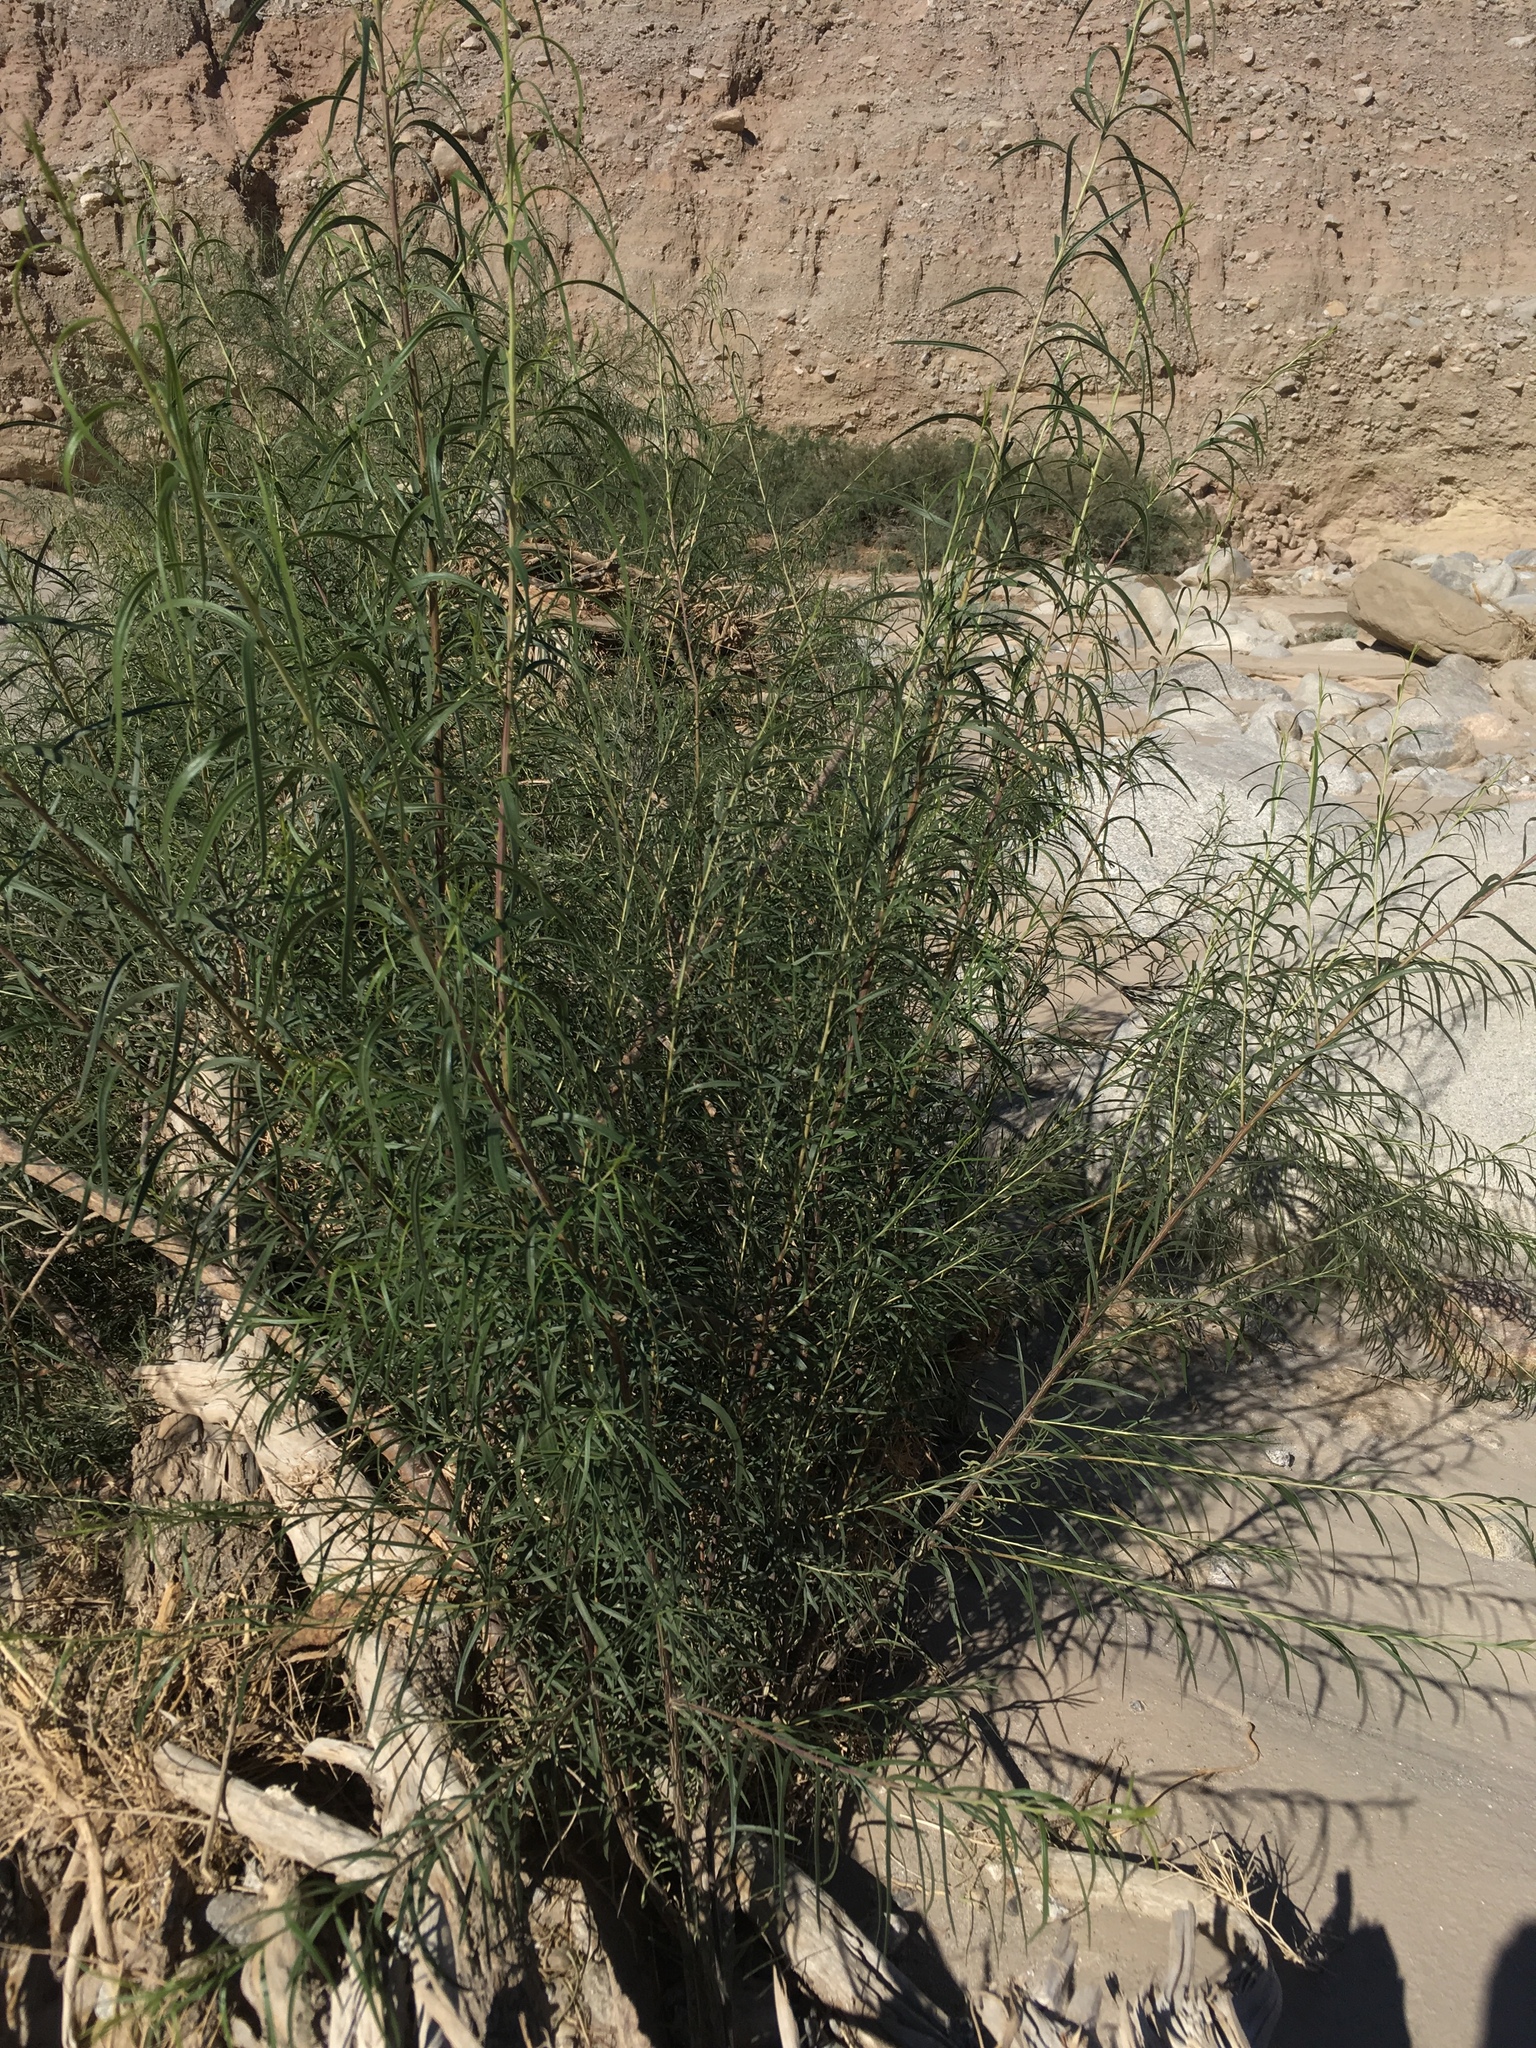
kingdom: Plantae
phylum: Tracheophyta
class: Magnoliopsida
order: Lamiales
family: Bignoniaceae
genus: Chilopsis
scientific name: Chilopsis linearis
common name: Desert-willow
